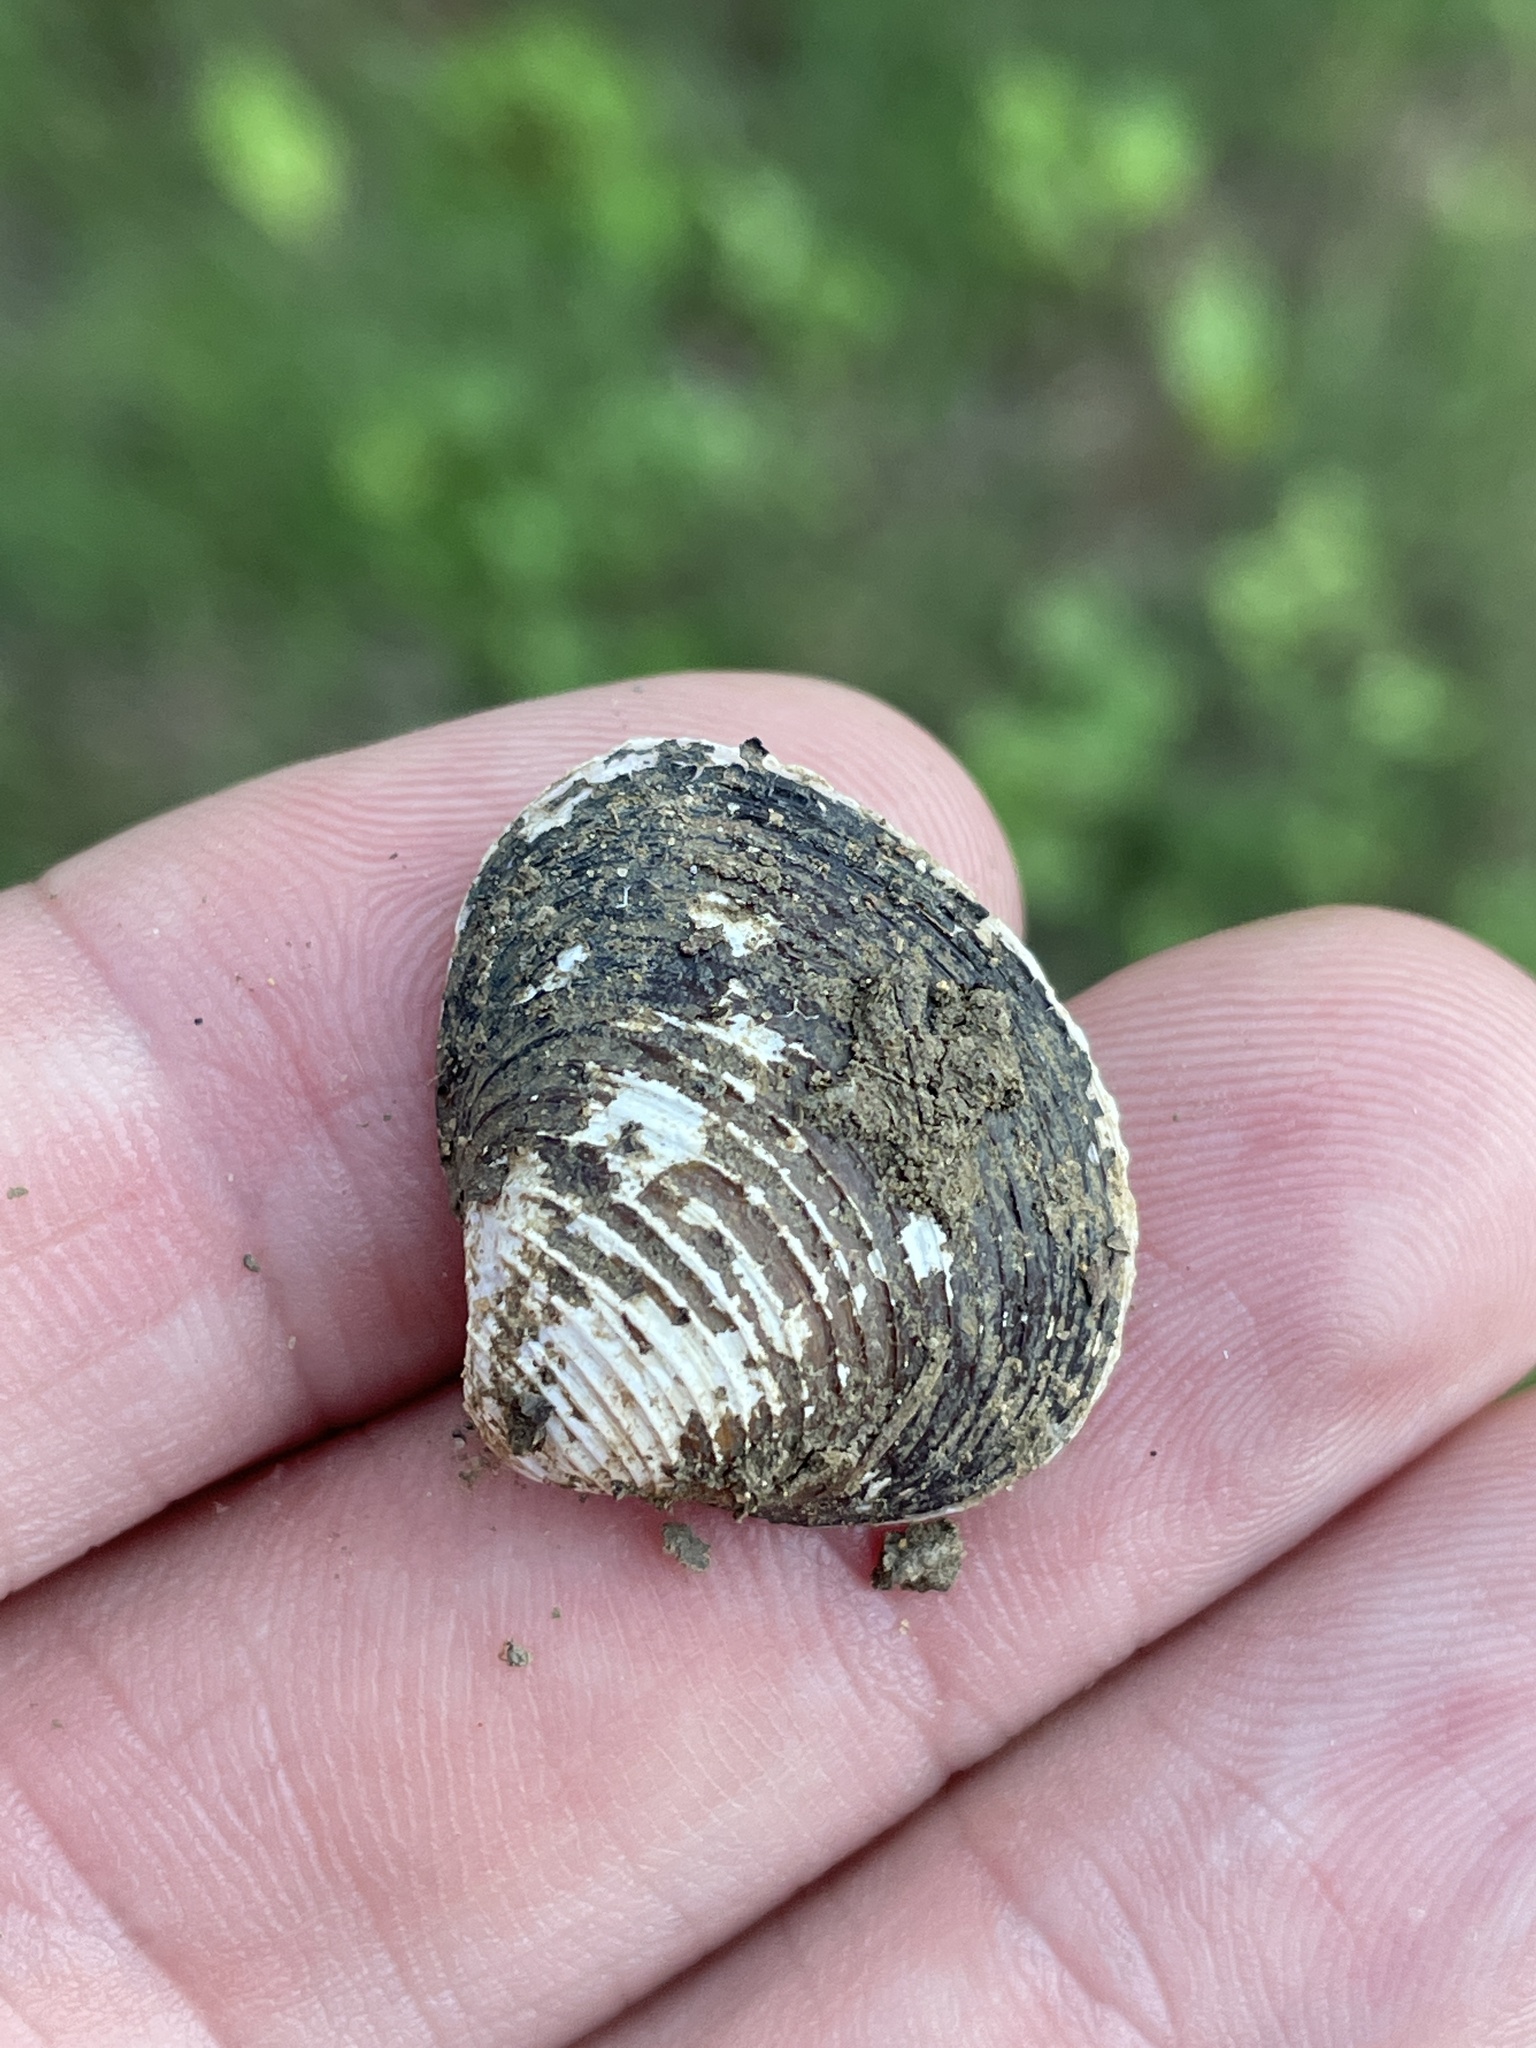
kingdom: Animalia
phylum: Mollusca
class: Bivalvia
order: Venerida
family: Cyrenidae
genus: Corbicula
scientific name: Corbicula fluminea
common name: Asian clam
